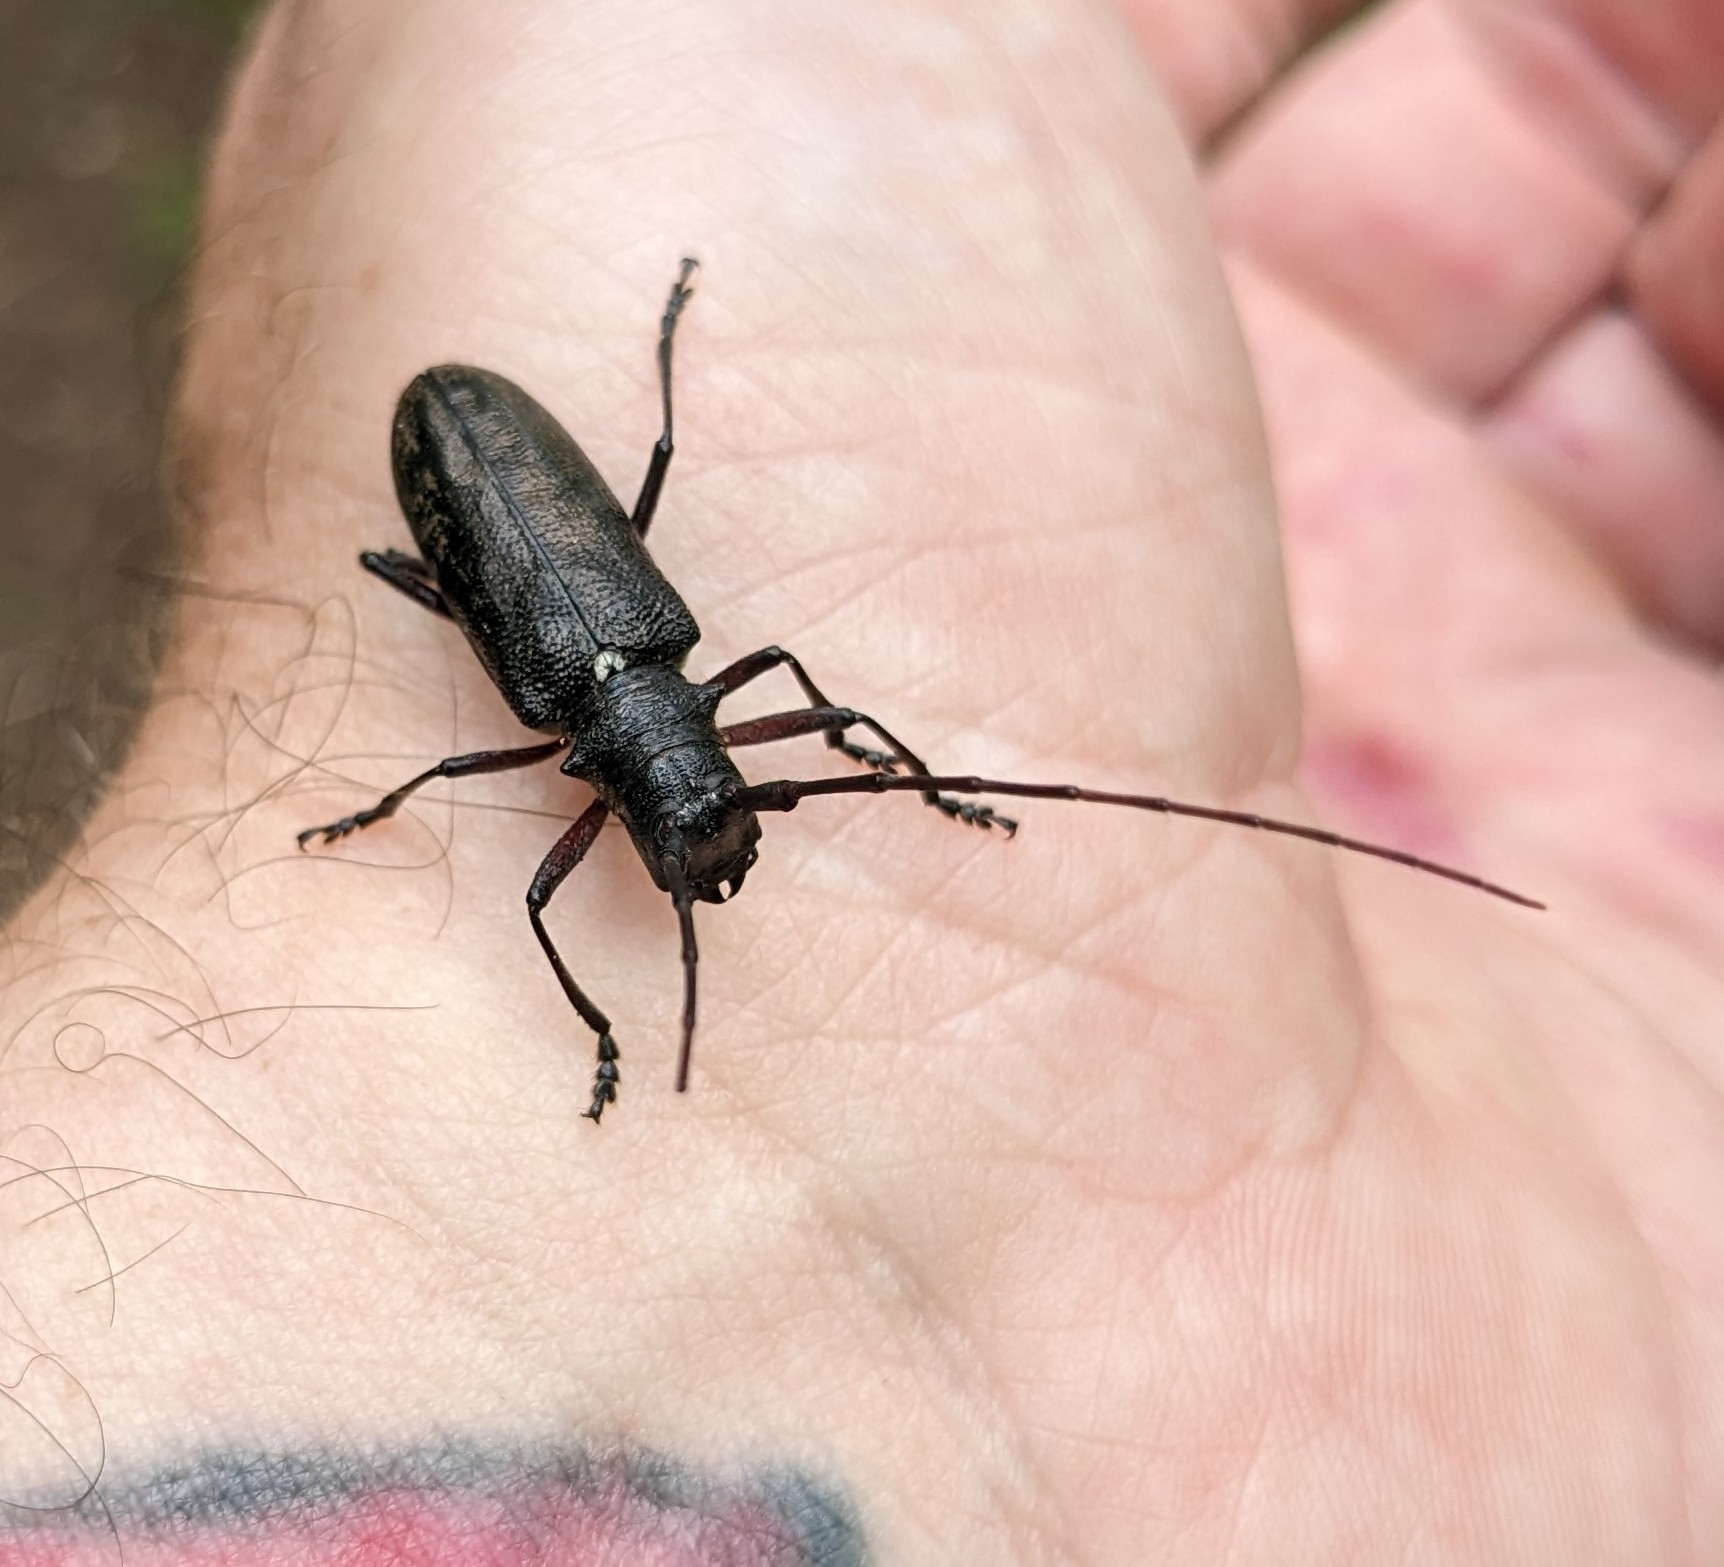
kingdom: Animalia
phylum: Arthropoda
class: Insecta
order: Coleoptera
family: Cerambycidae
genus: Monochamus
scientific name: Monochamus scutellatus
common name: White-spotted sawyer beetle
